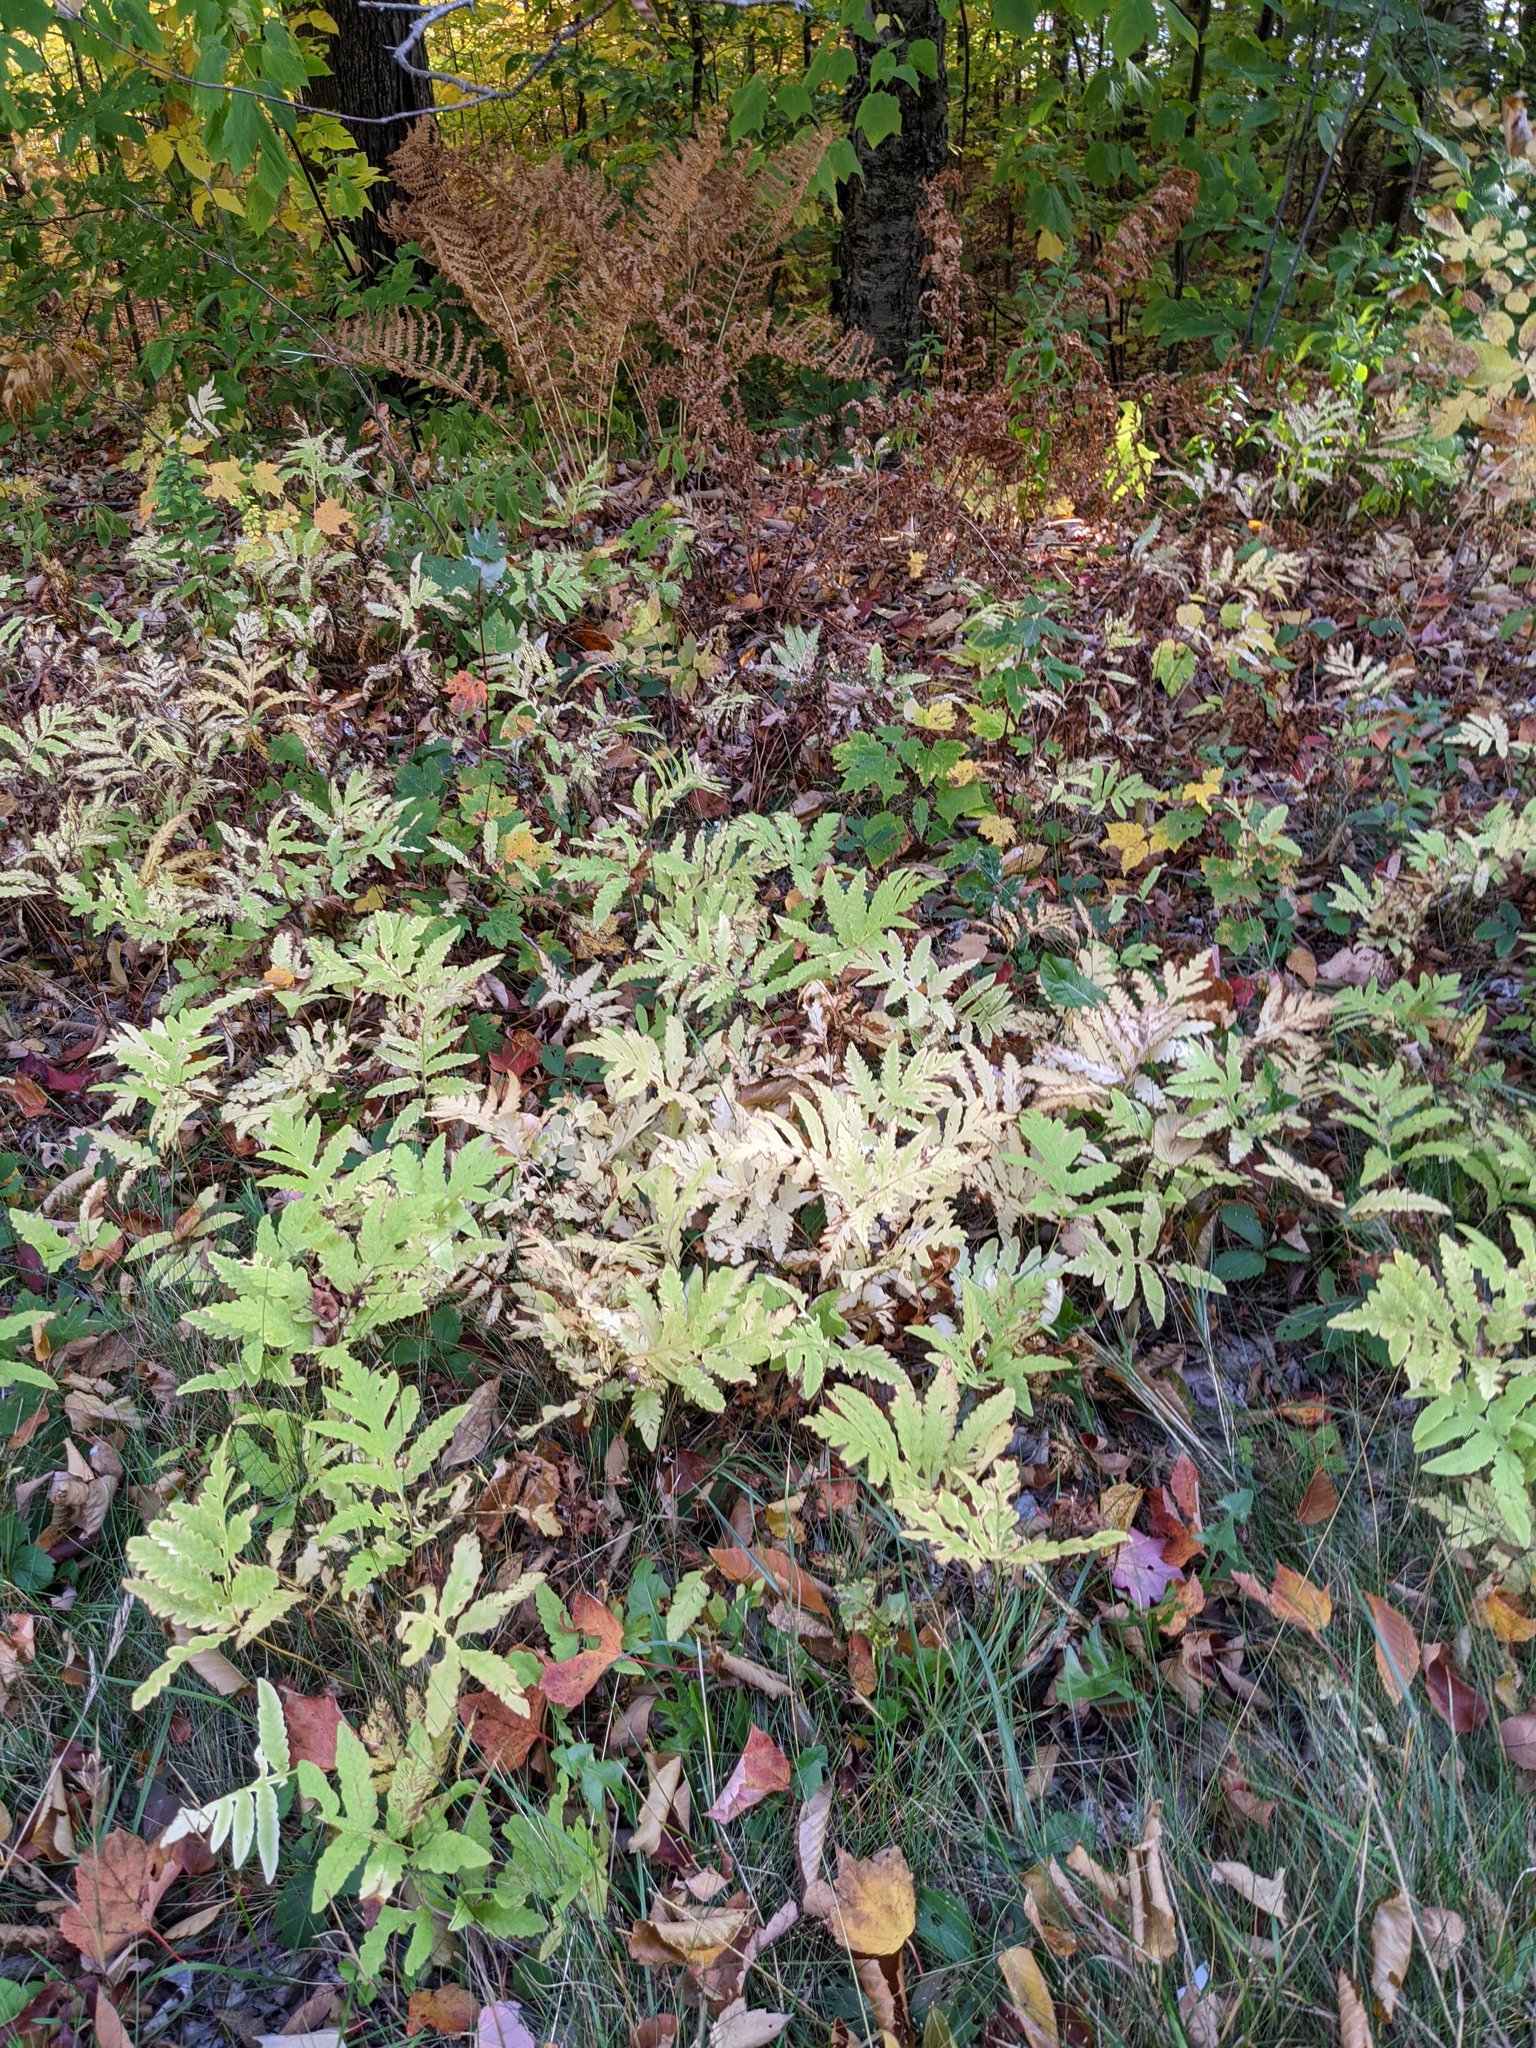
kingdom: Plantae
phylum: Tracheophyta
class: Polypodiopsida
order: Polypodiales
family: Onocleaceae
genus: Onoclea
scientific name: Onoclea sensibilis
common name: Sensitive fern
